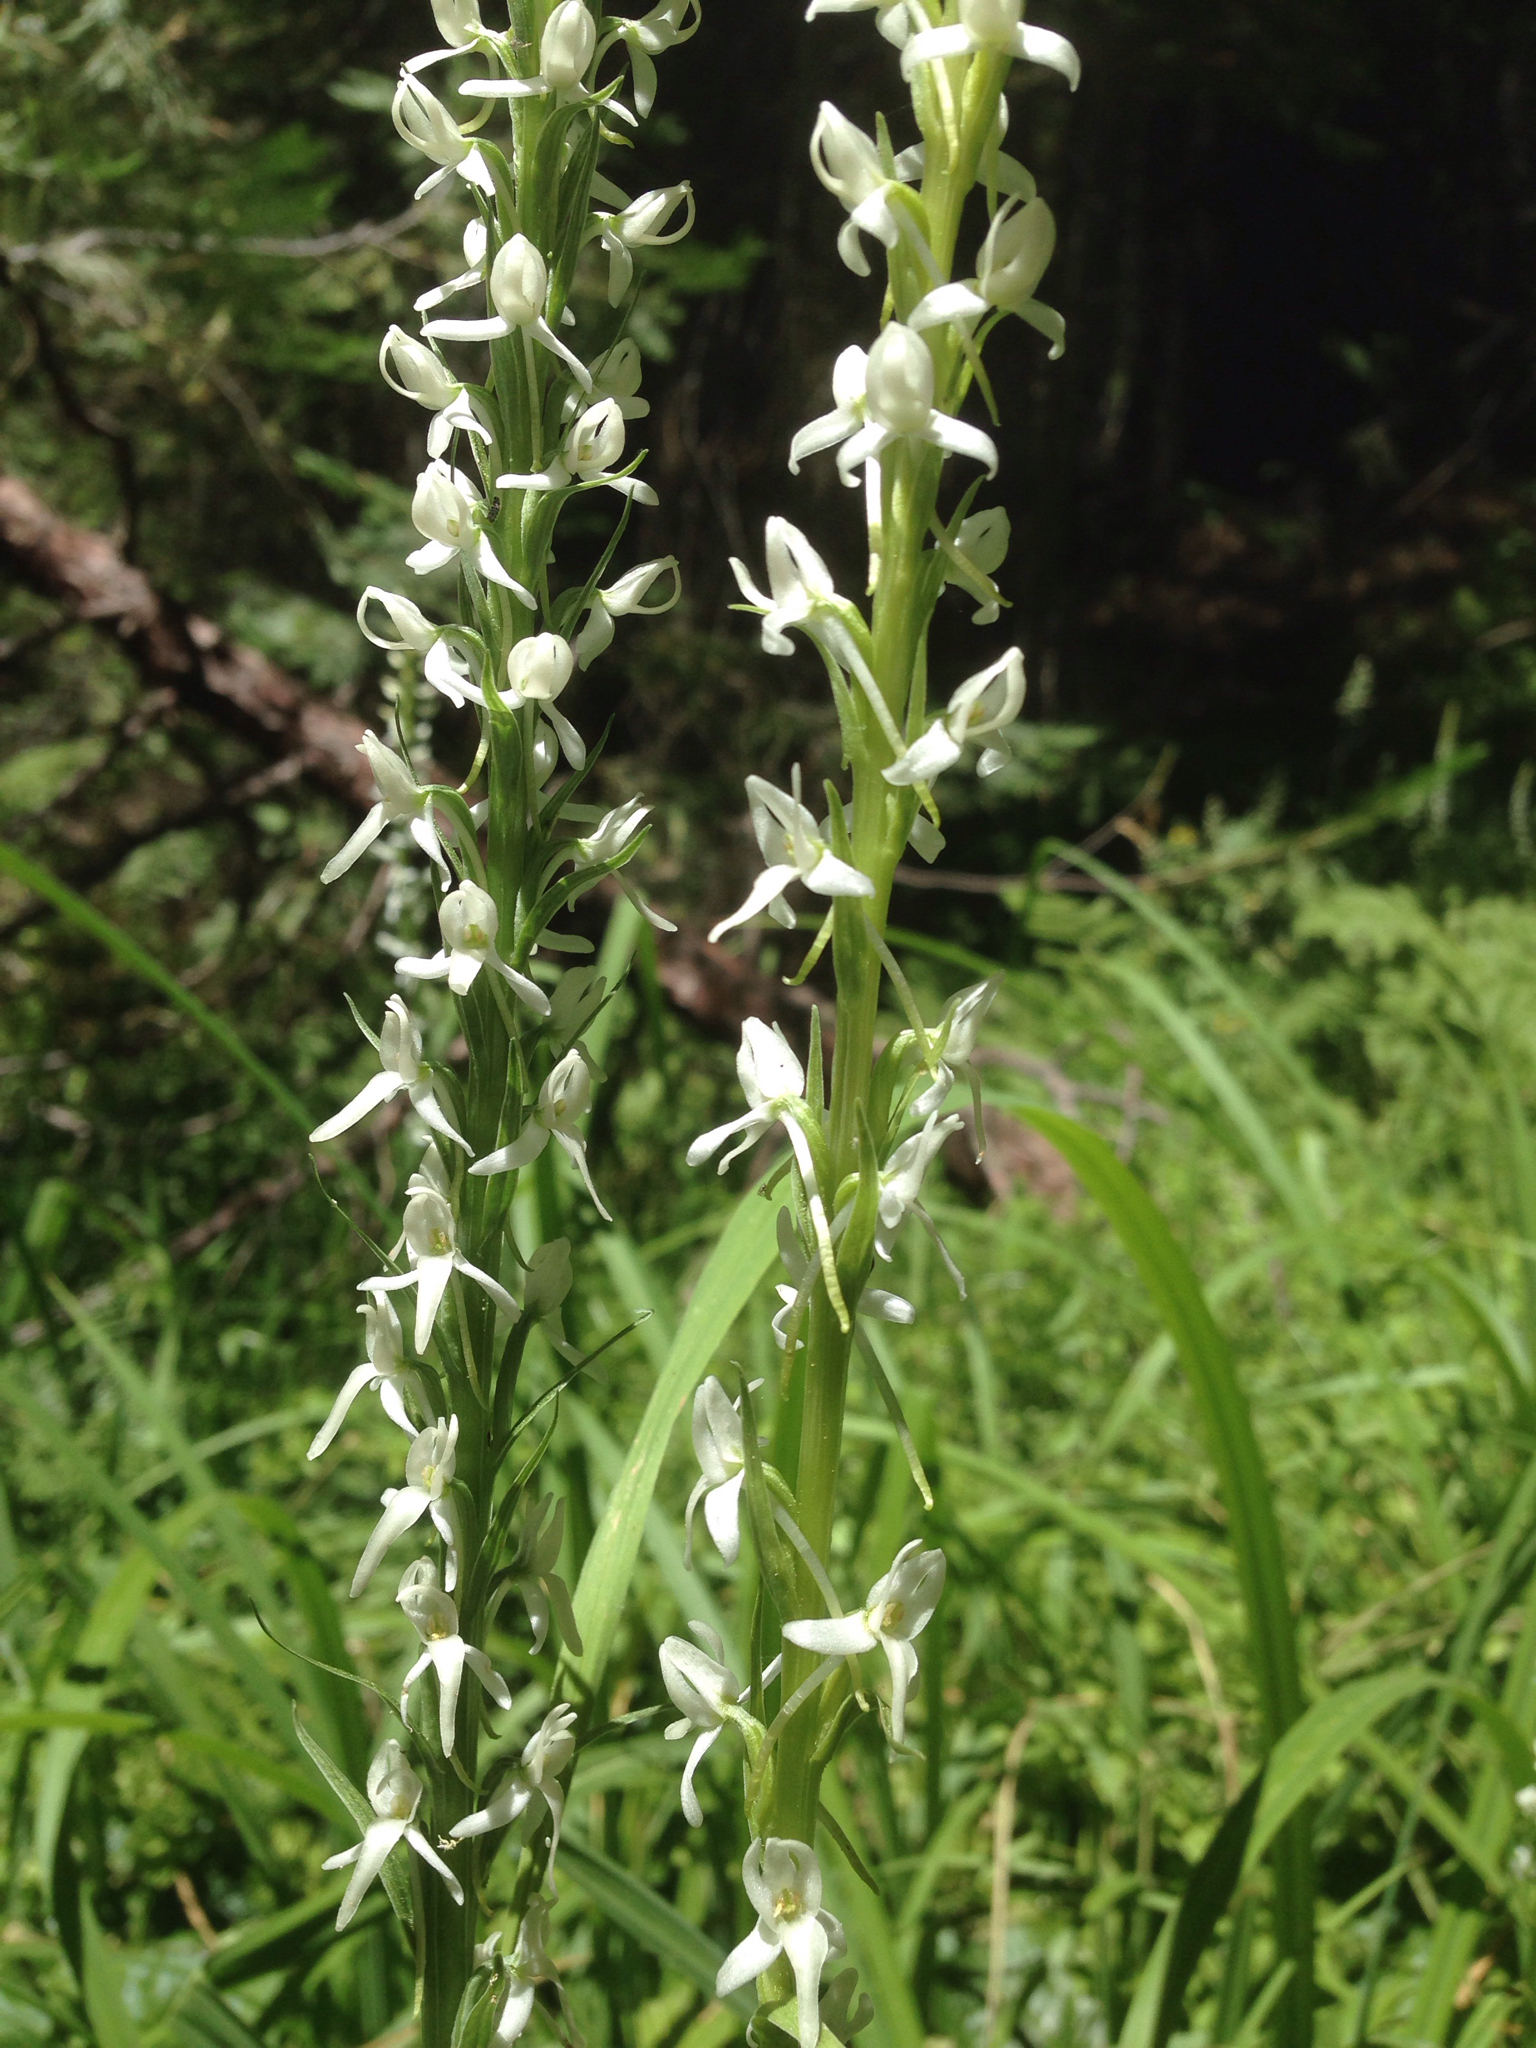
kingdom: Plantae
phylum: Tracheophyta
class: Liliopsida
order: Asparagales
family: Orchidaceae
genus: Platanthera
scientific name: Platanthera dilatata
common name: Bog candles
